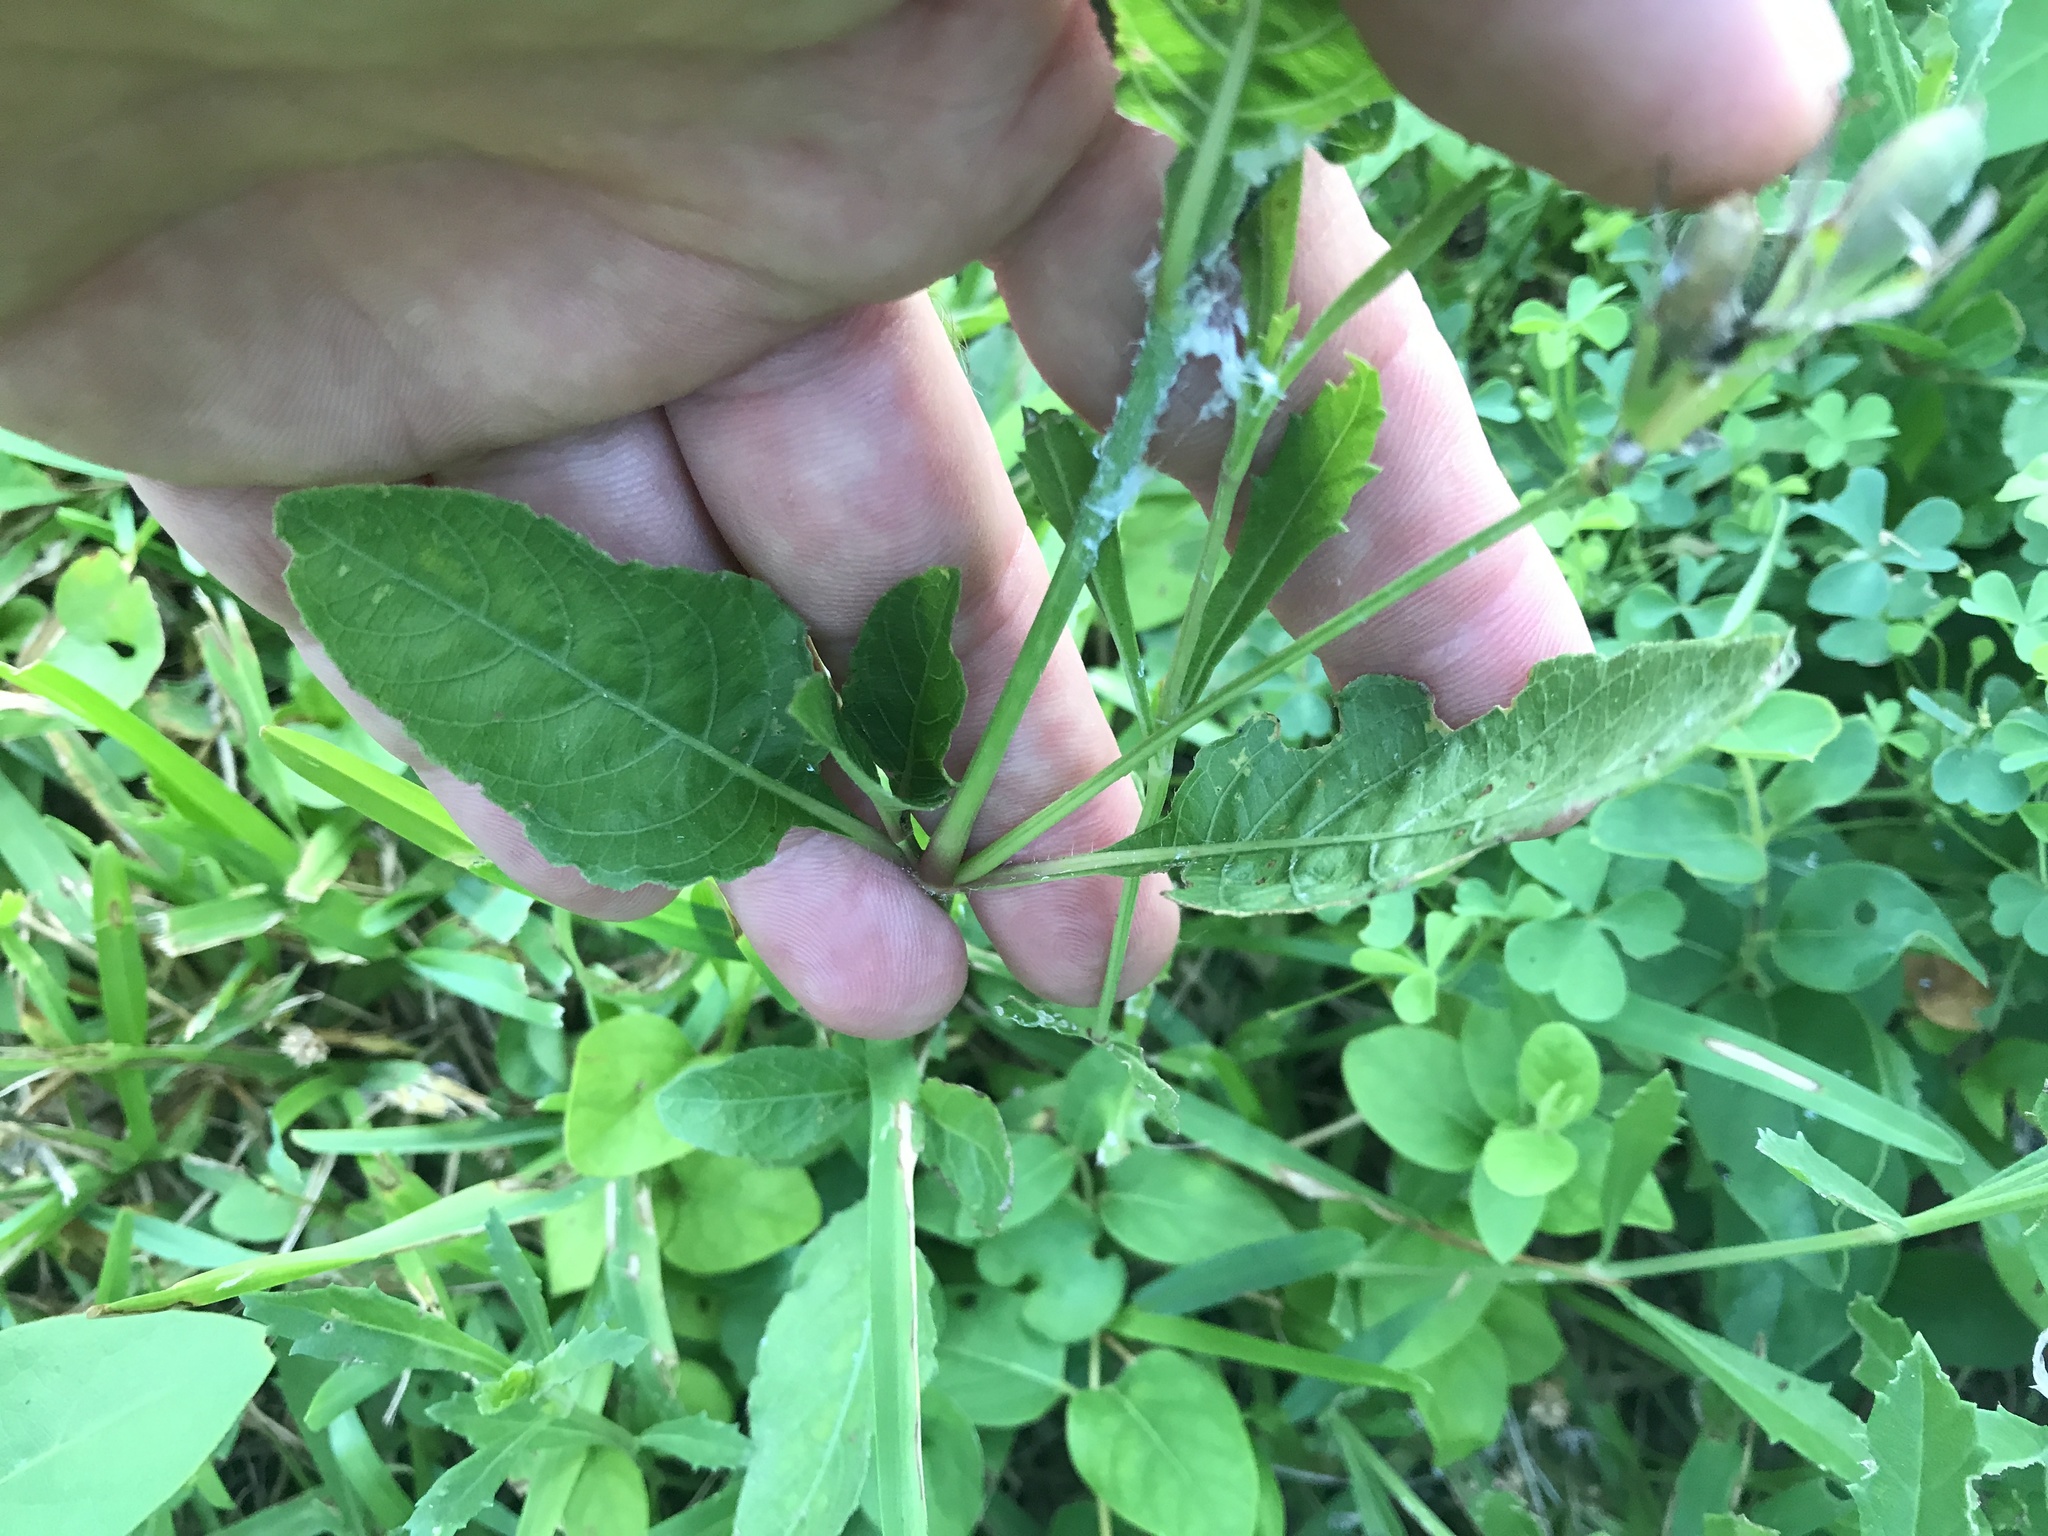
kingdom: Plantae
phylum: Tracheophyta
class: Magnoliopsida
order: Lamiales
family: Acanthaceae
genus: Ruellia
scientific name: Ruellia ciliatiflora
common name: Hairyflower wild petunia
